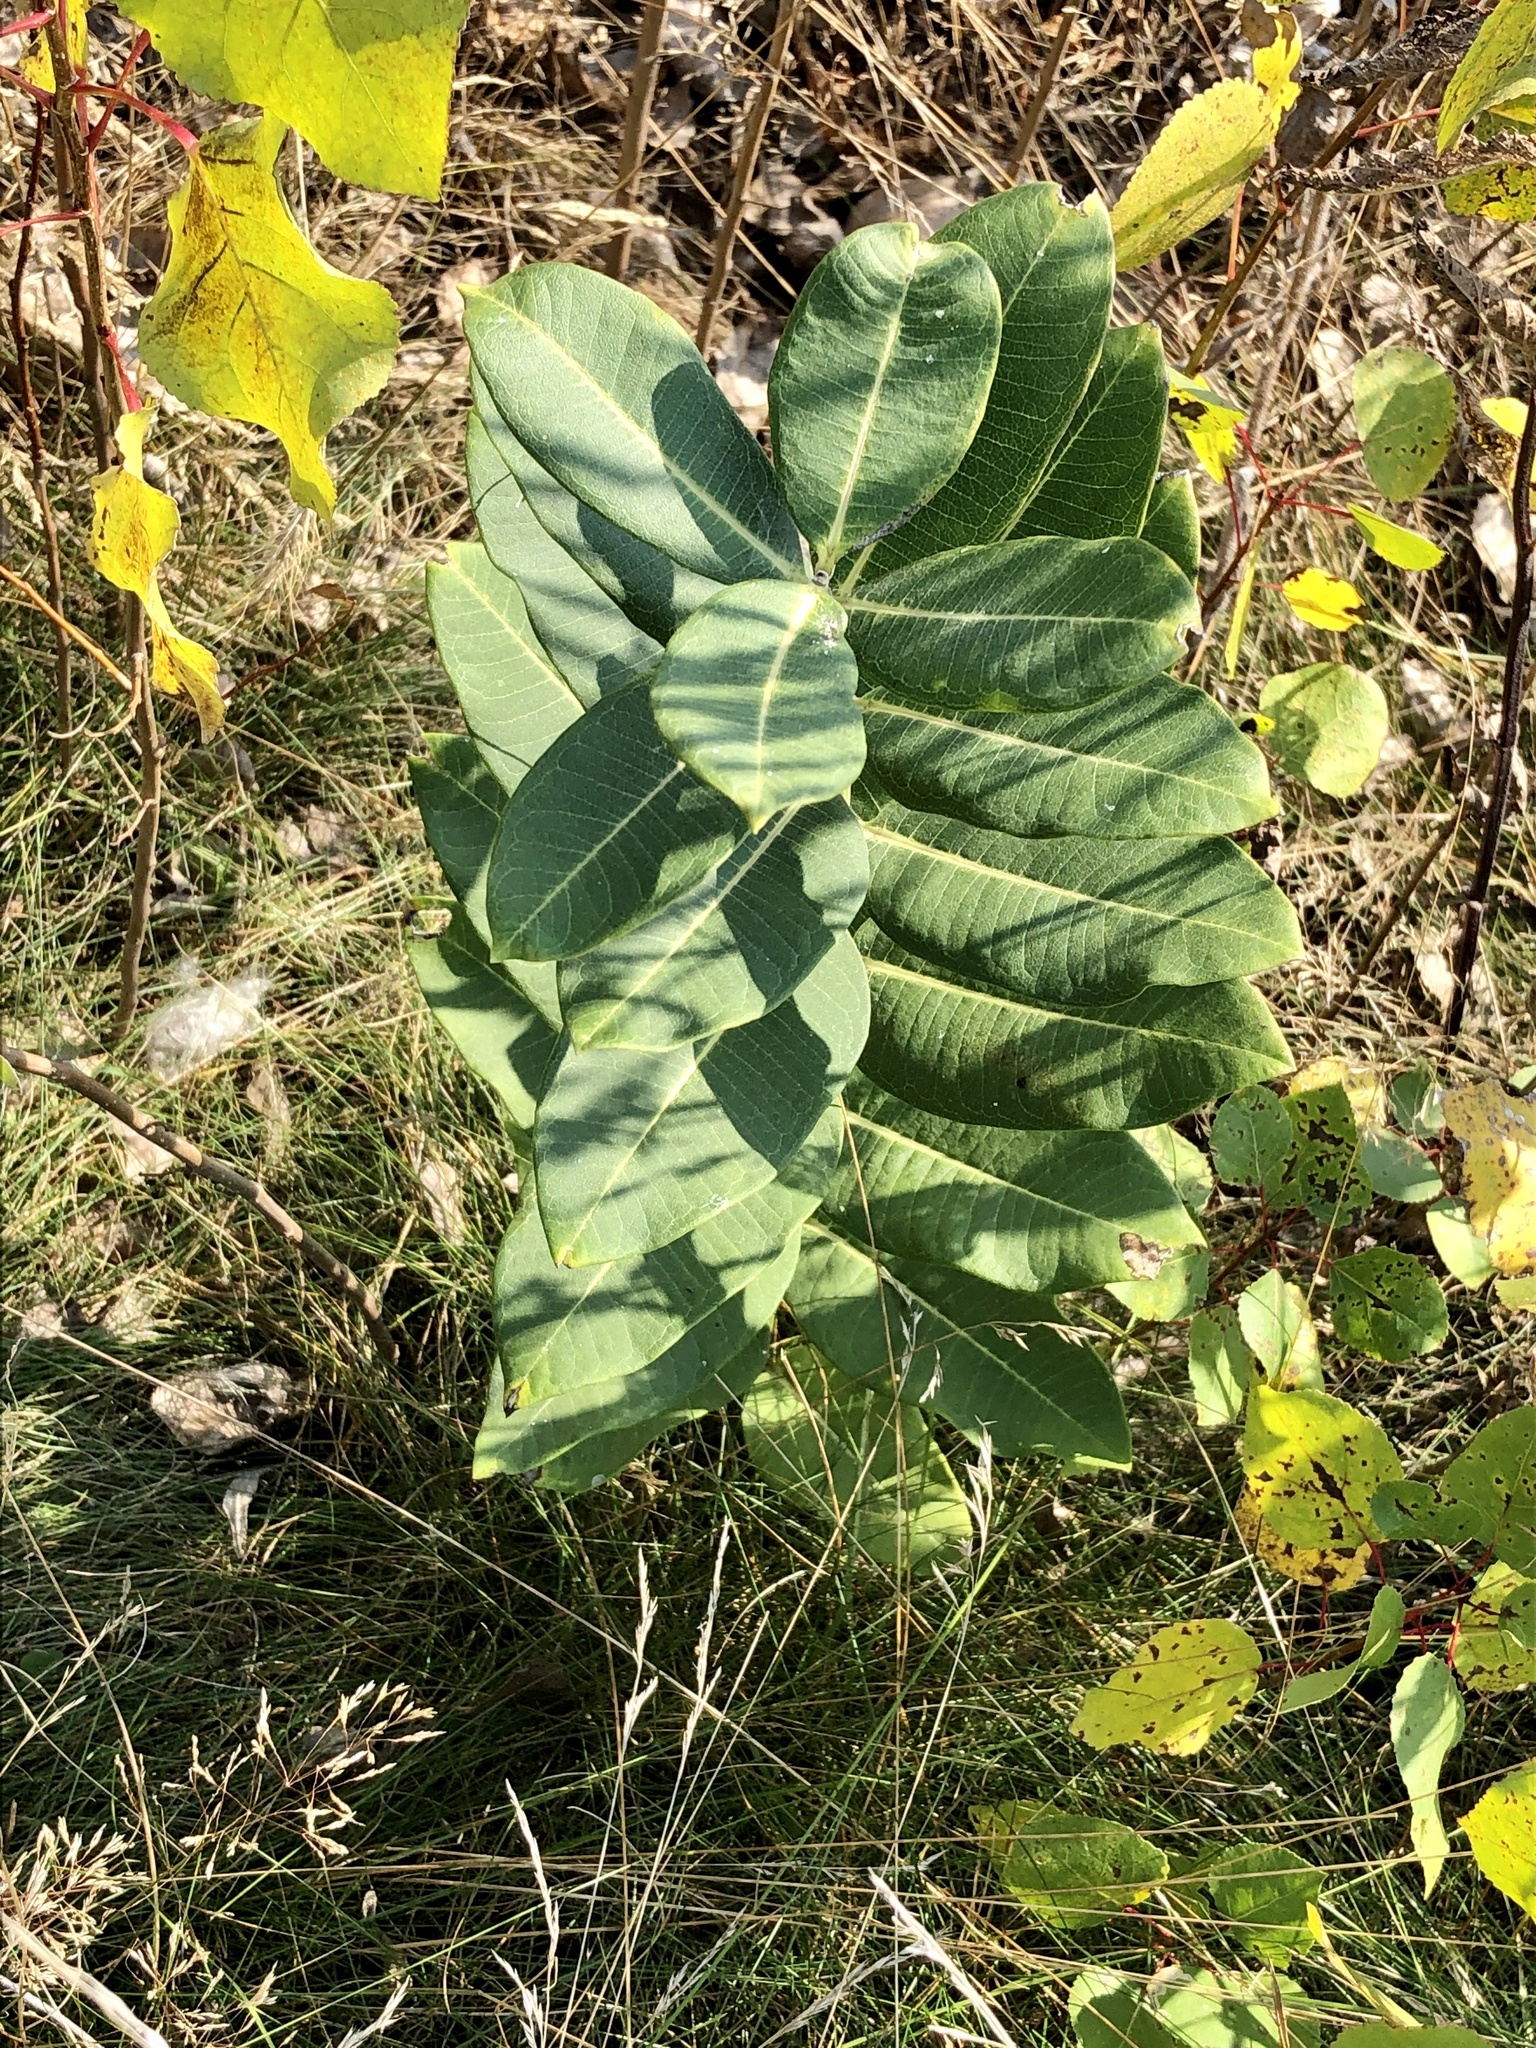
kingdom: Plantae
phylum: Tracheophyta
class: Magnoliopsida
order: Gentianales
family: Apocynaceae
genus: Asclepias
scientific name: Asclepias syriaca
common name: Common milkweed
